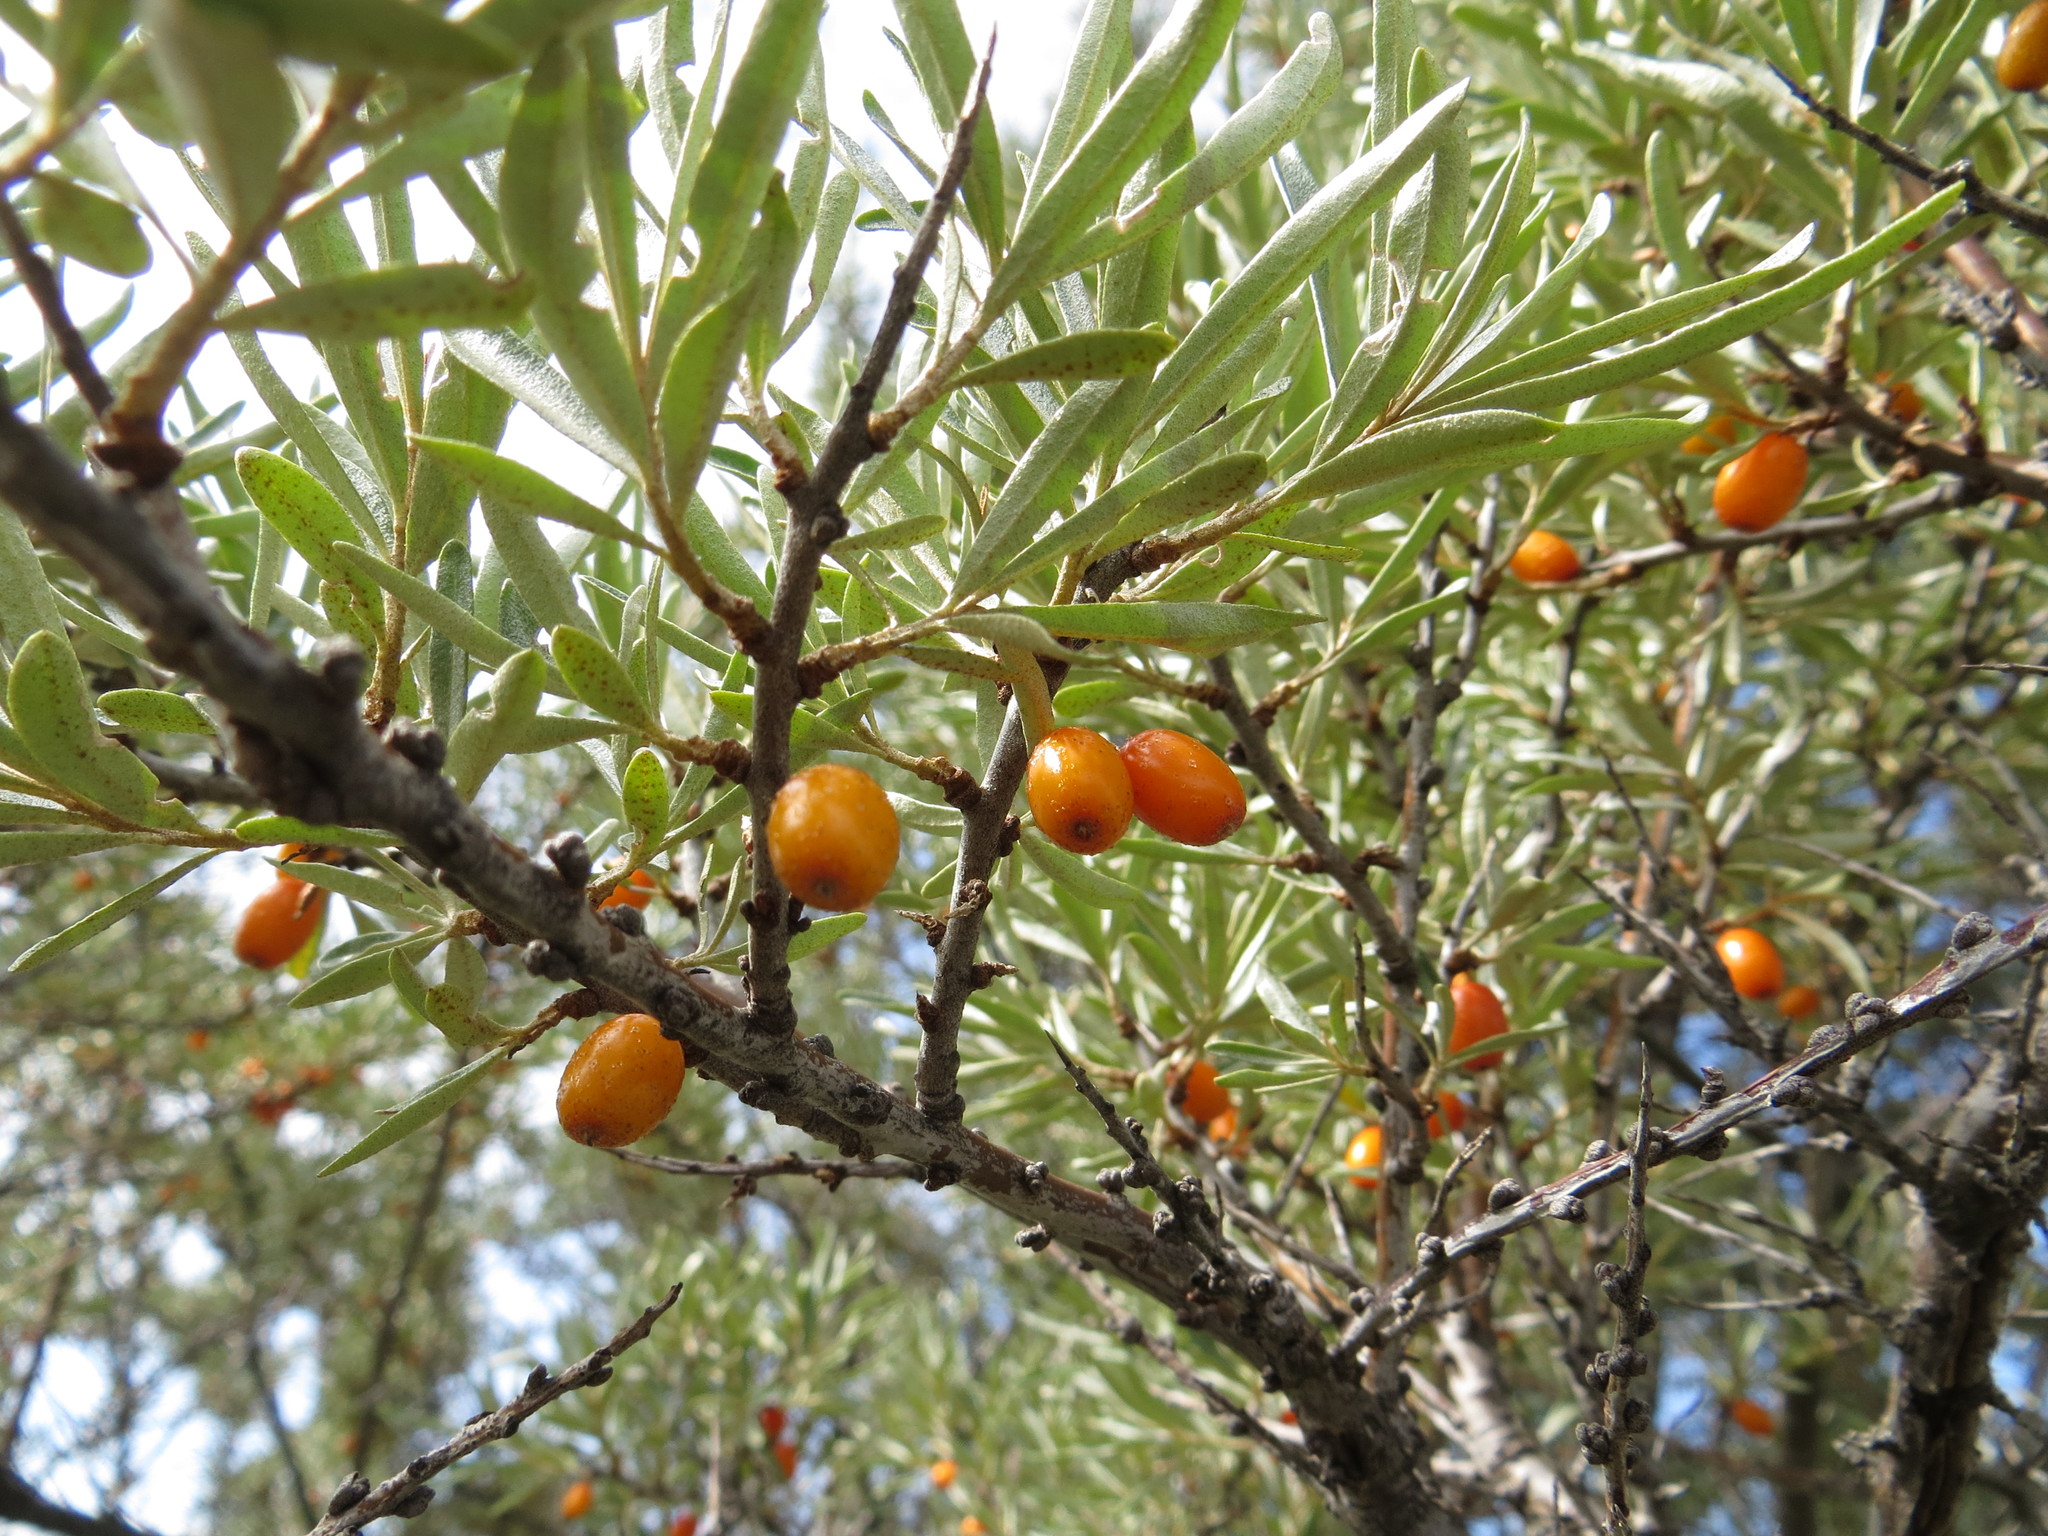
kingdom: Plantae
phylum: Tracheophyta
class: Magnoliopsida
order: Rosales
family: Elaeagnaceae
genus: Hippophae
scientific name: Hippophae rhamnoides
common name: Sea-buckthorn
